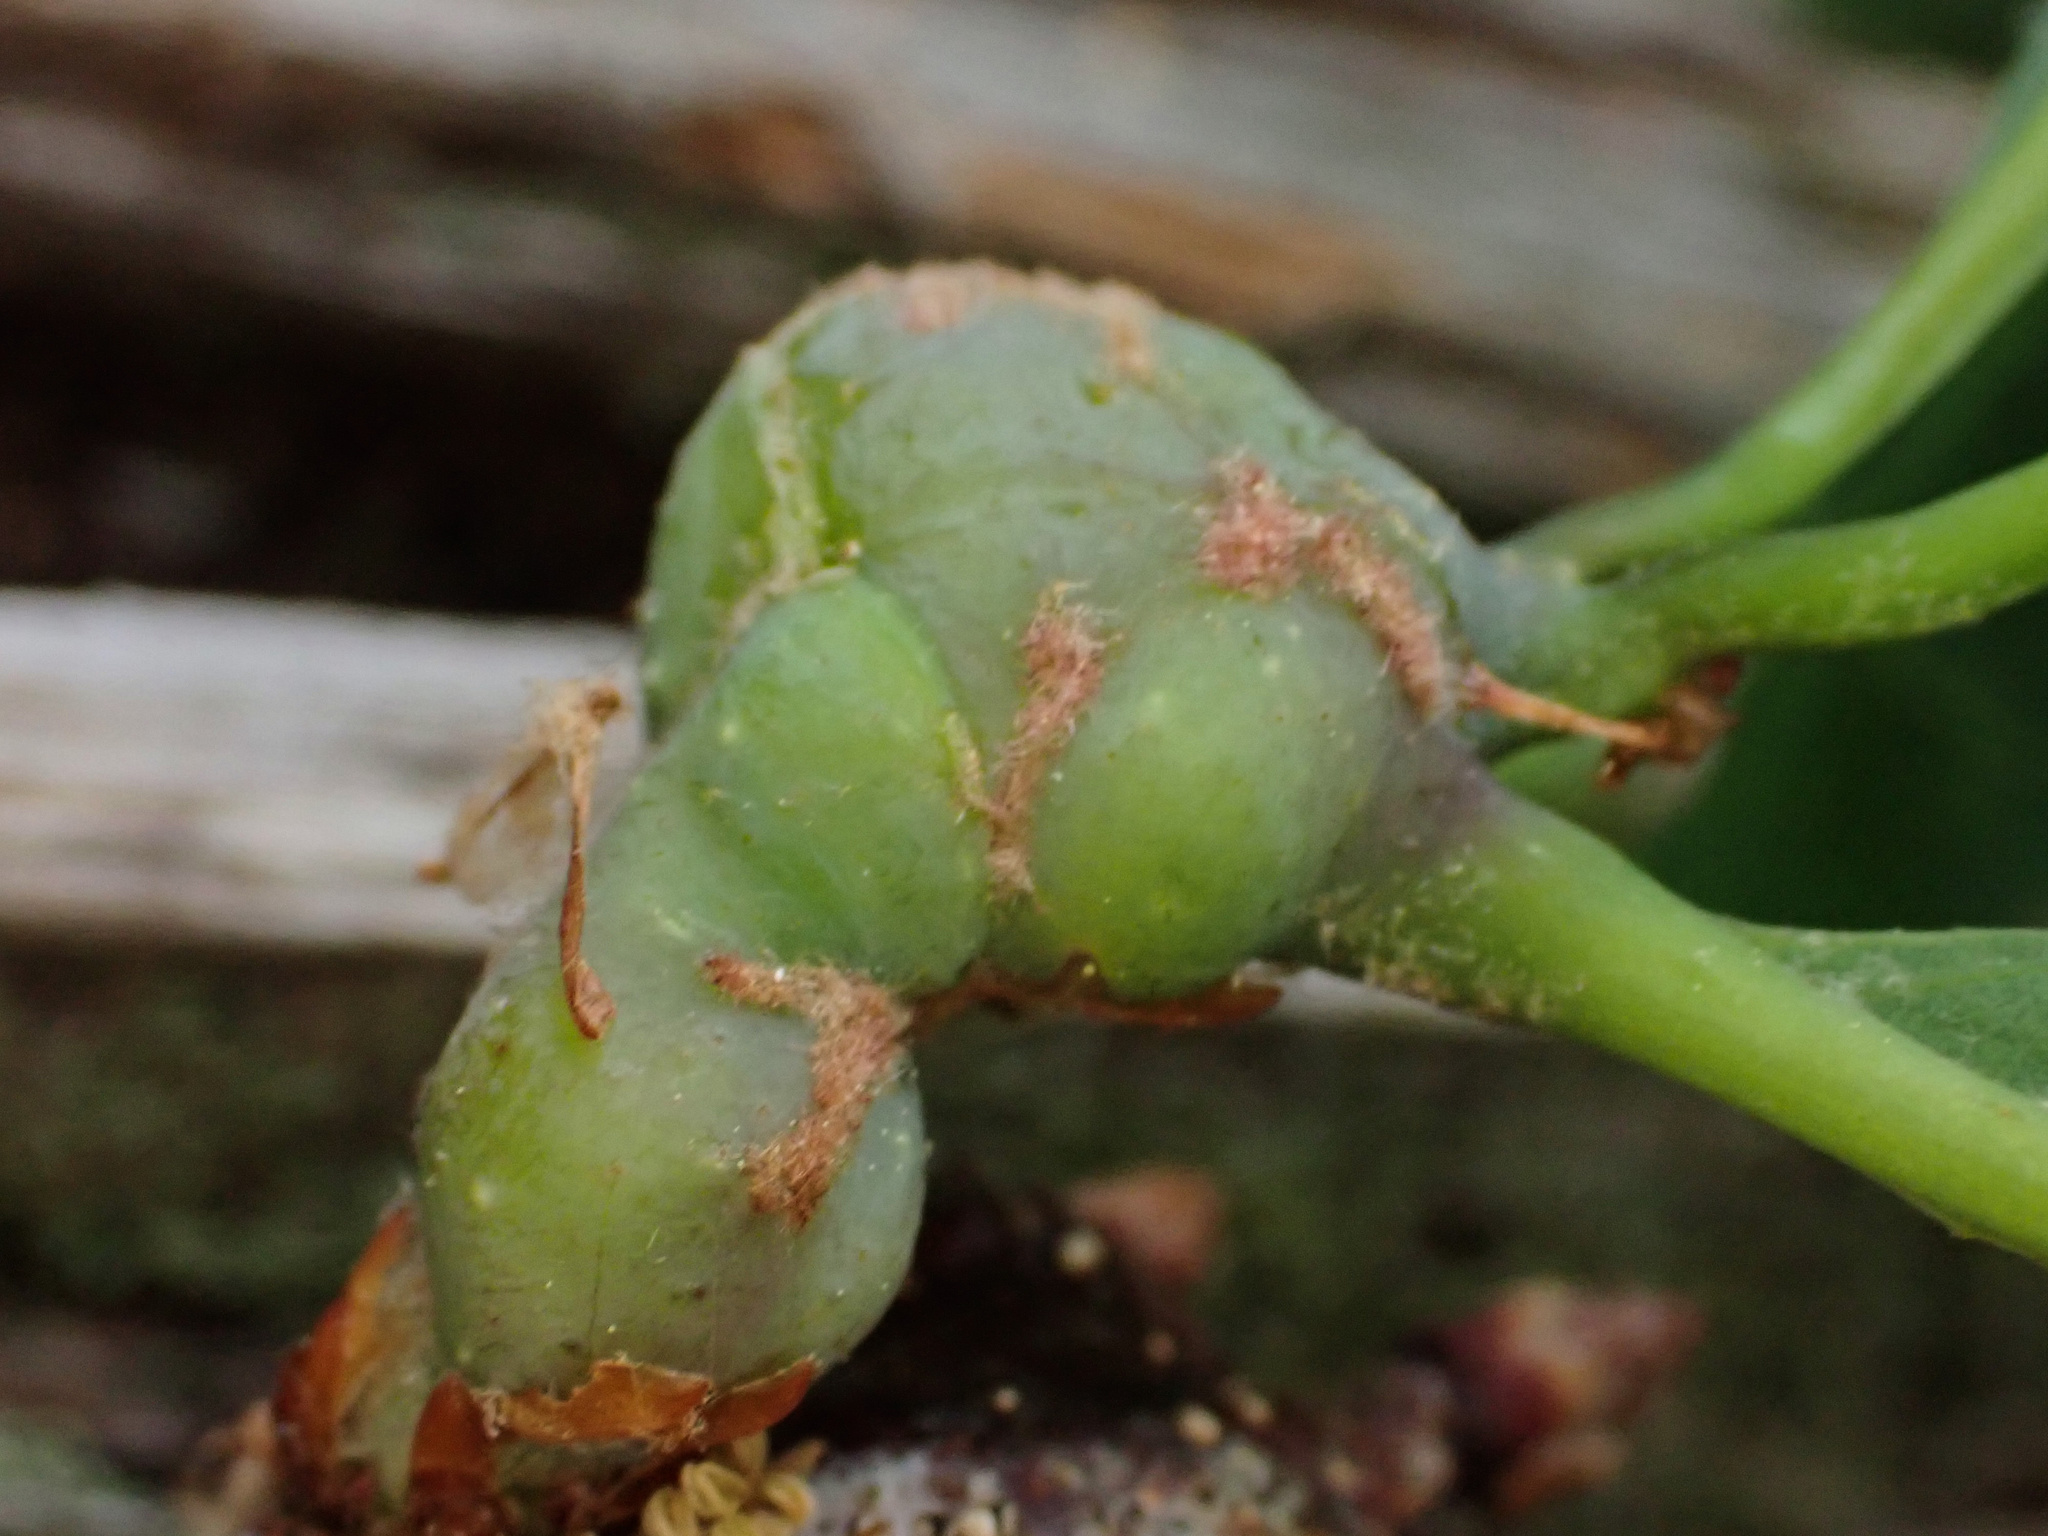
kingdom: Animalia
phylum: Arthropoda
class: Insecta
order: Hymenoptera
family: Cynipidae
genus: Neuroterus
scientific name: Neuroterus quercusbaccarum
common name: Common spangle gall
